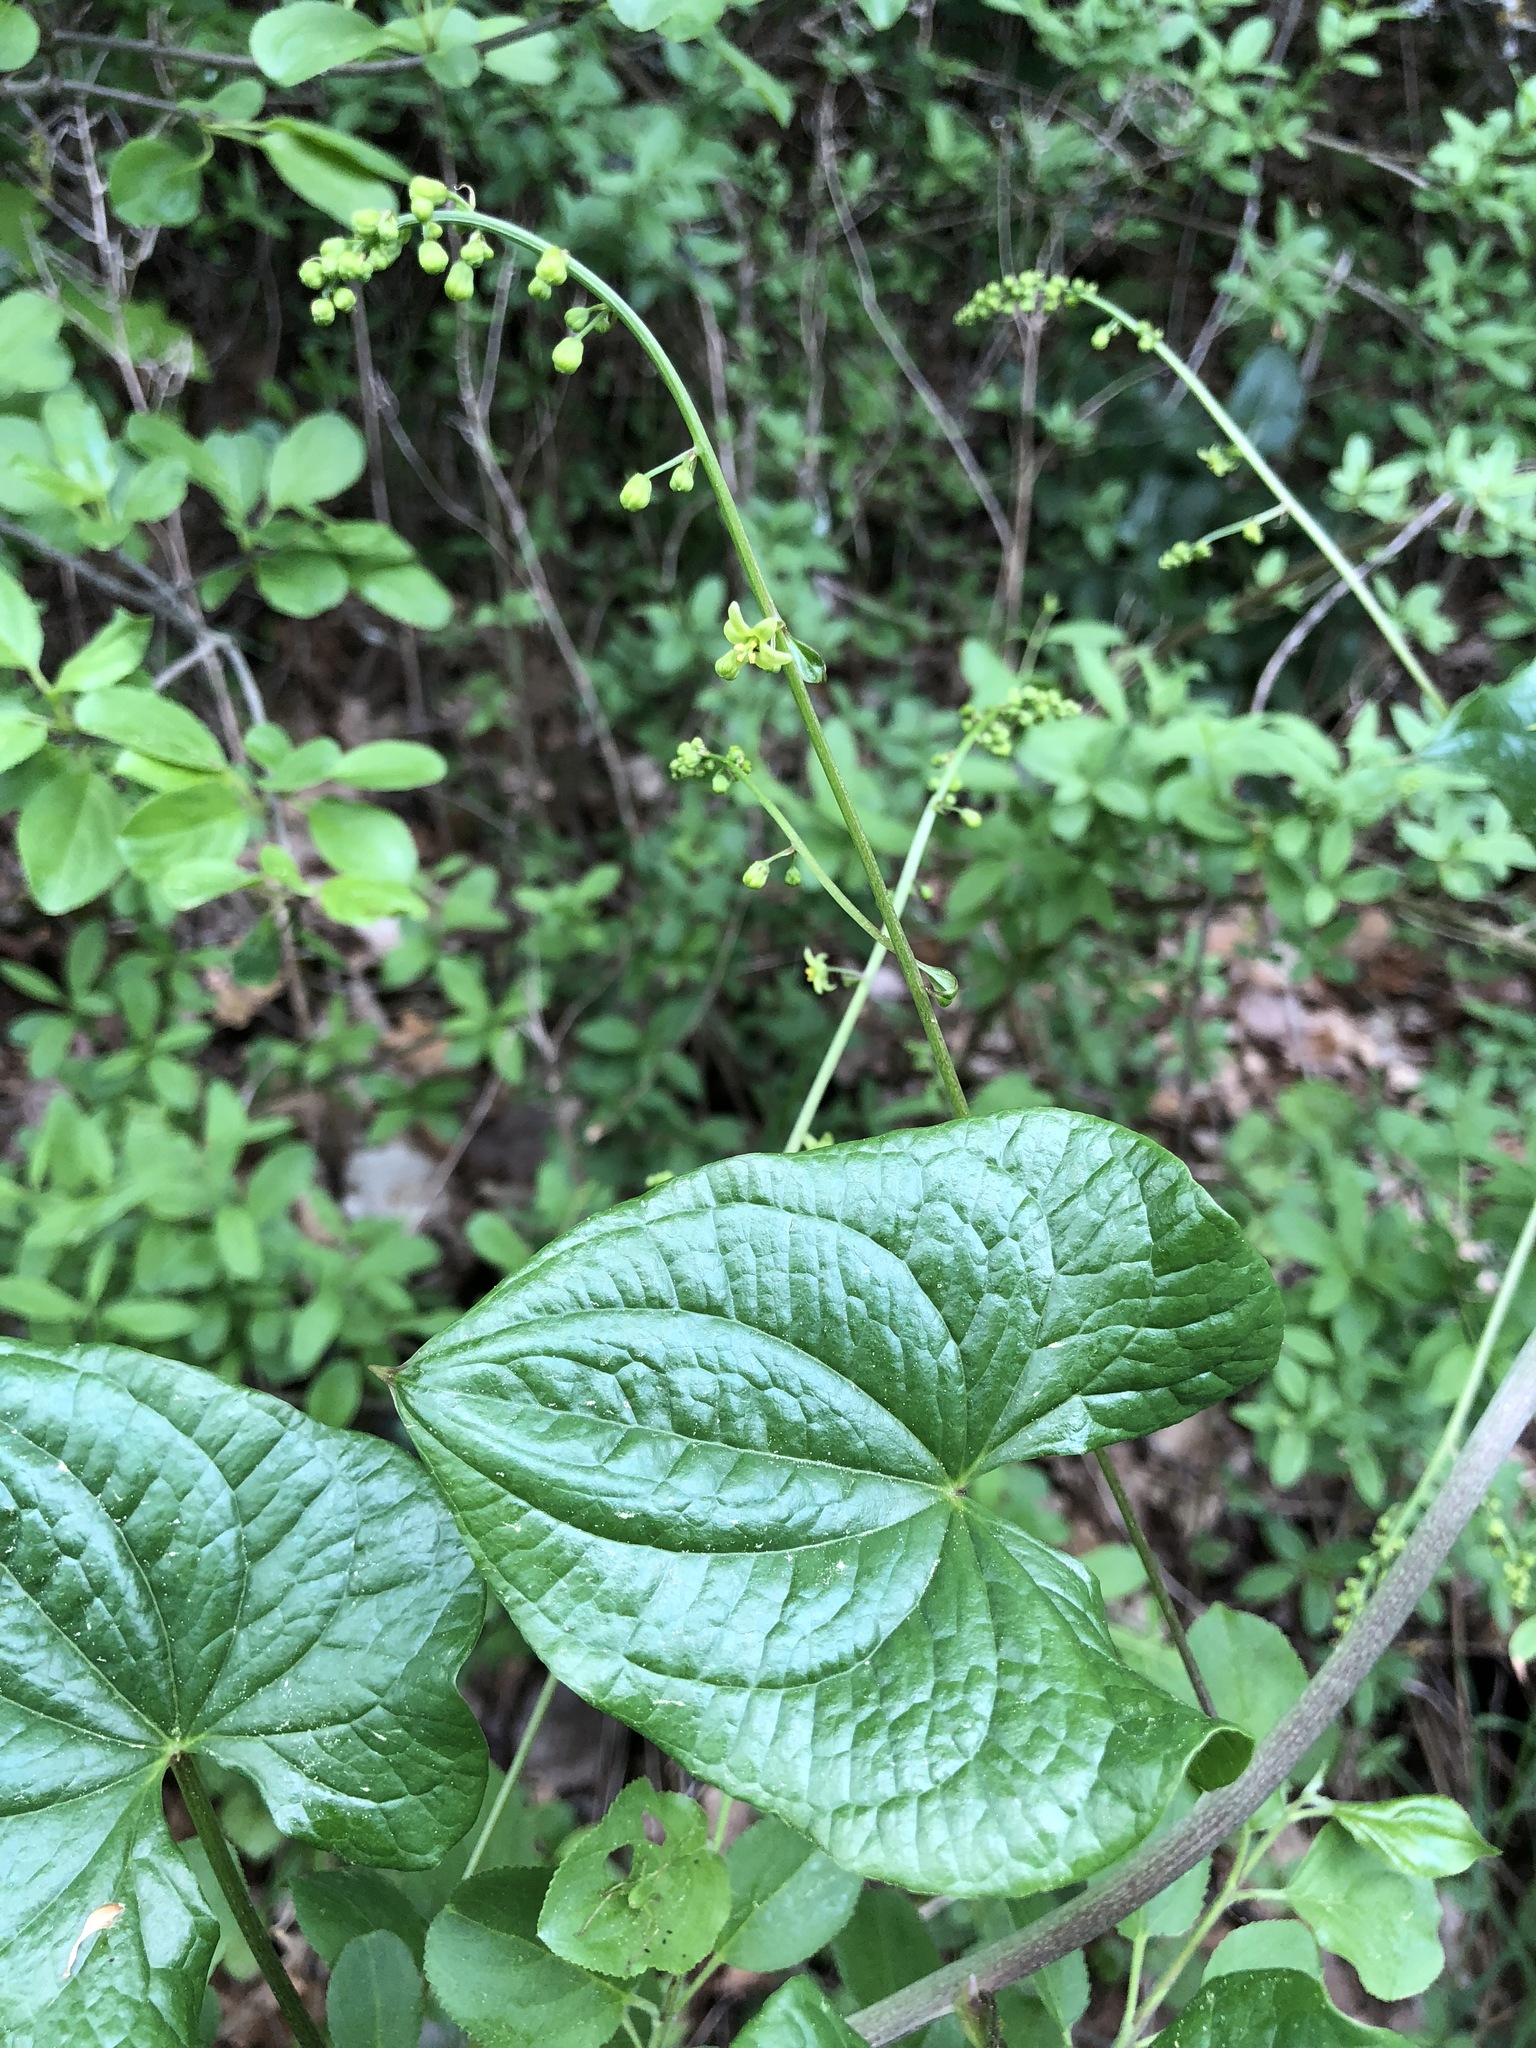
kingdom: Plantae
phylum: Tracheophyta
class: Liliopsida
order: Dioscoreales
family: Dioscoreaceae
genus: Dioscorea
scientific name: Dioscorea communis
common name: Black-bindweed
